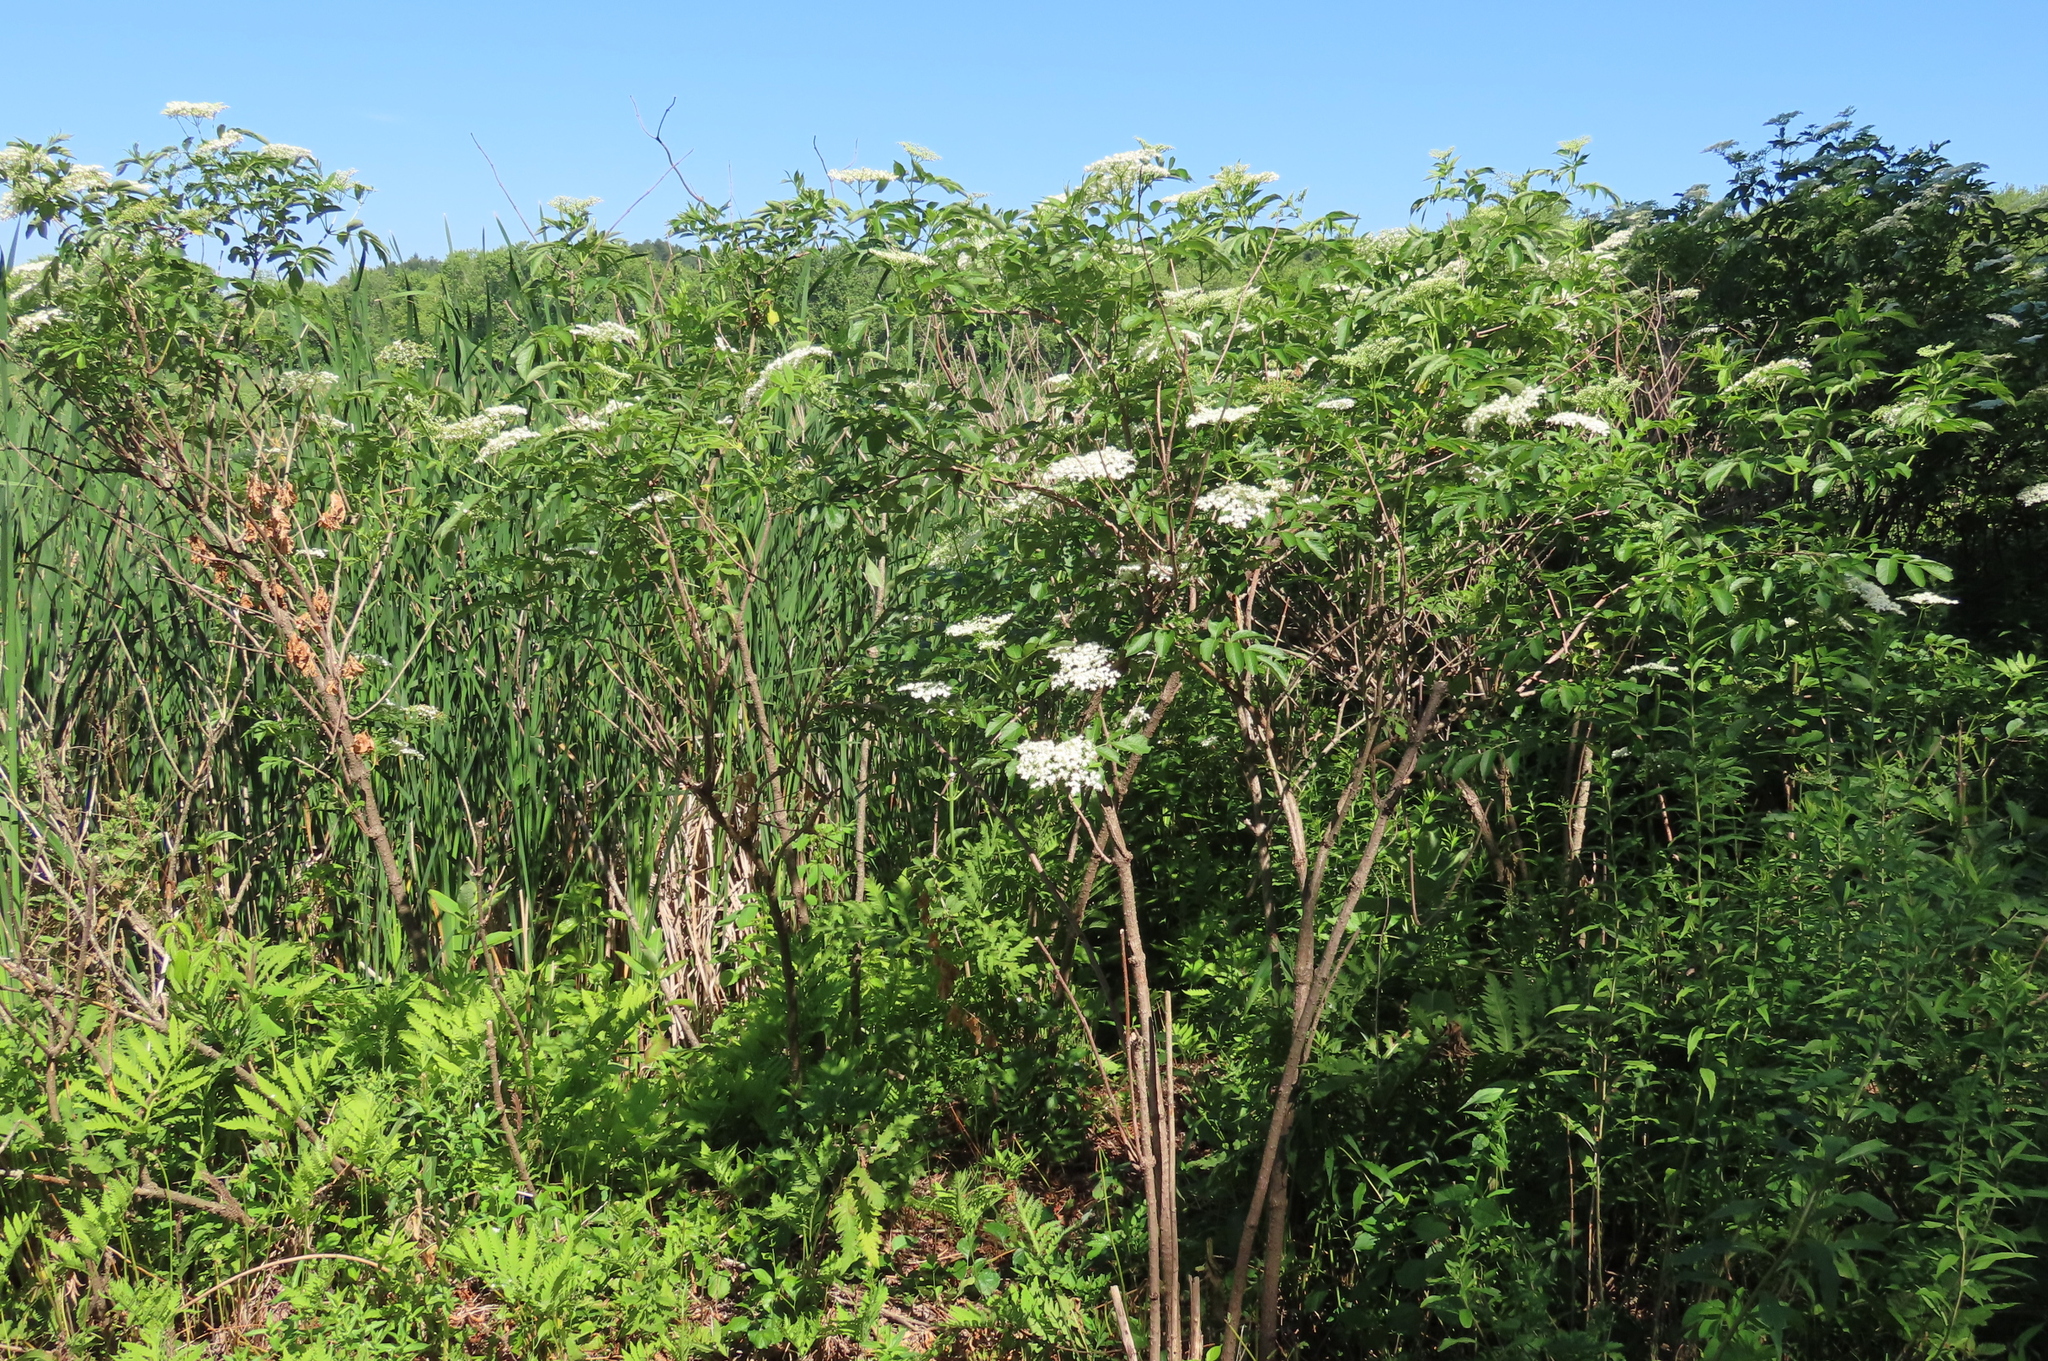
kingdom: Plantae
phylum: Tracheophyta
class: Magnoliopsida
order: Dipsacales
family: Viburnaceae
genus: Sambucus
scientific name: Sambucus canadensis
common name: American elder
